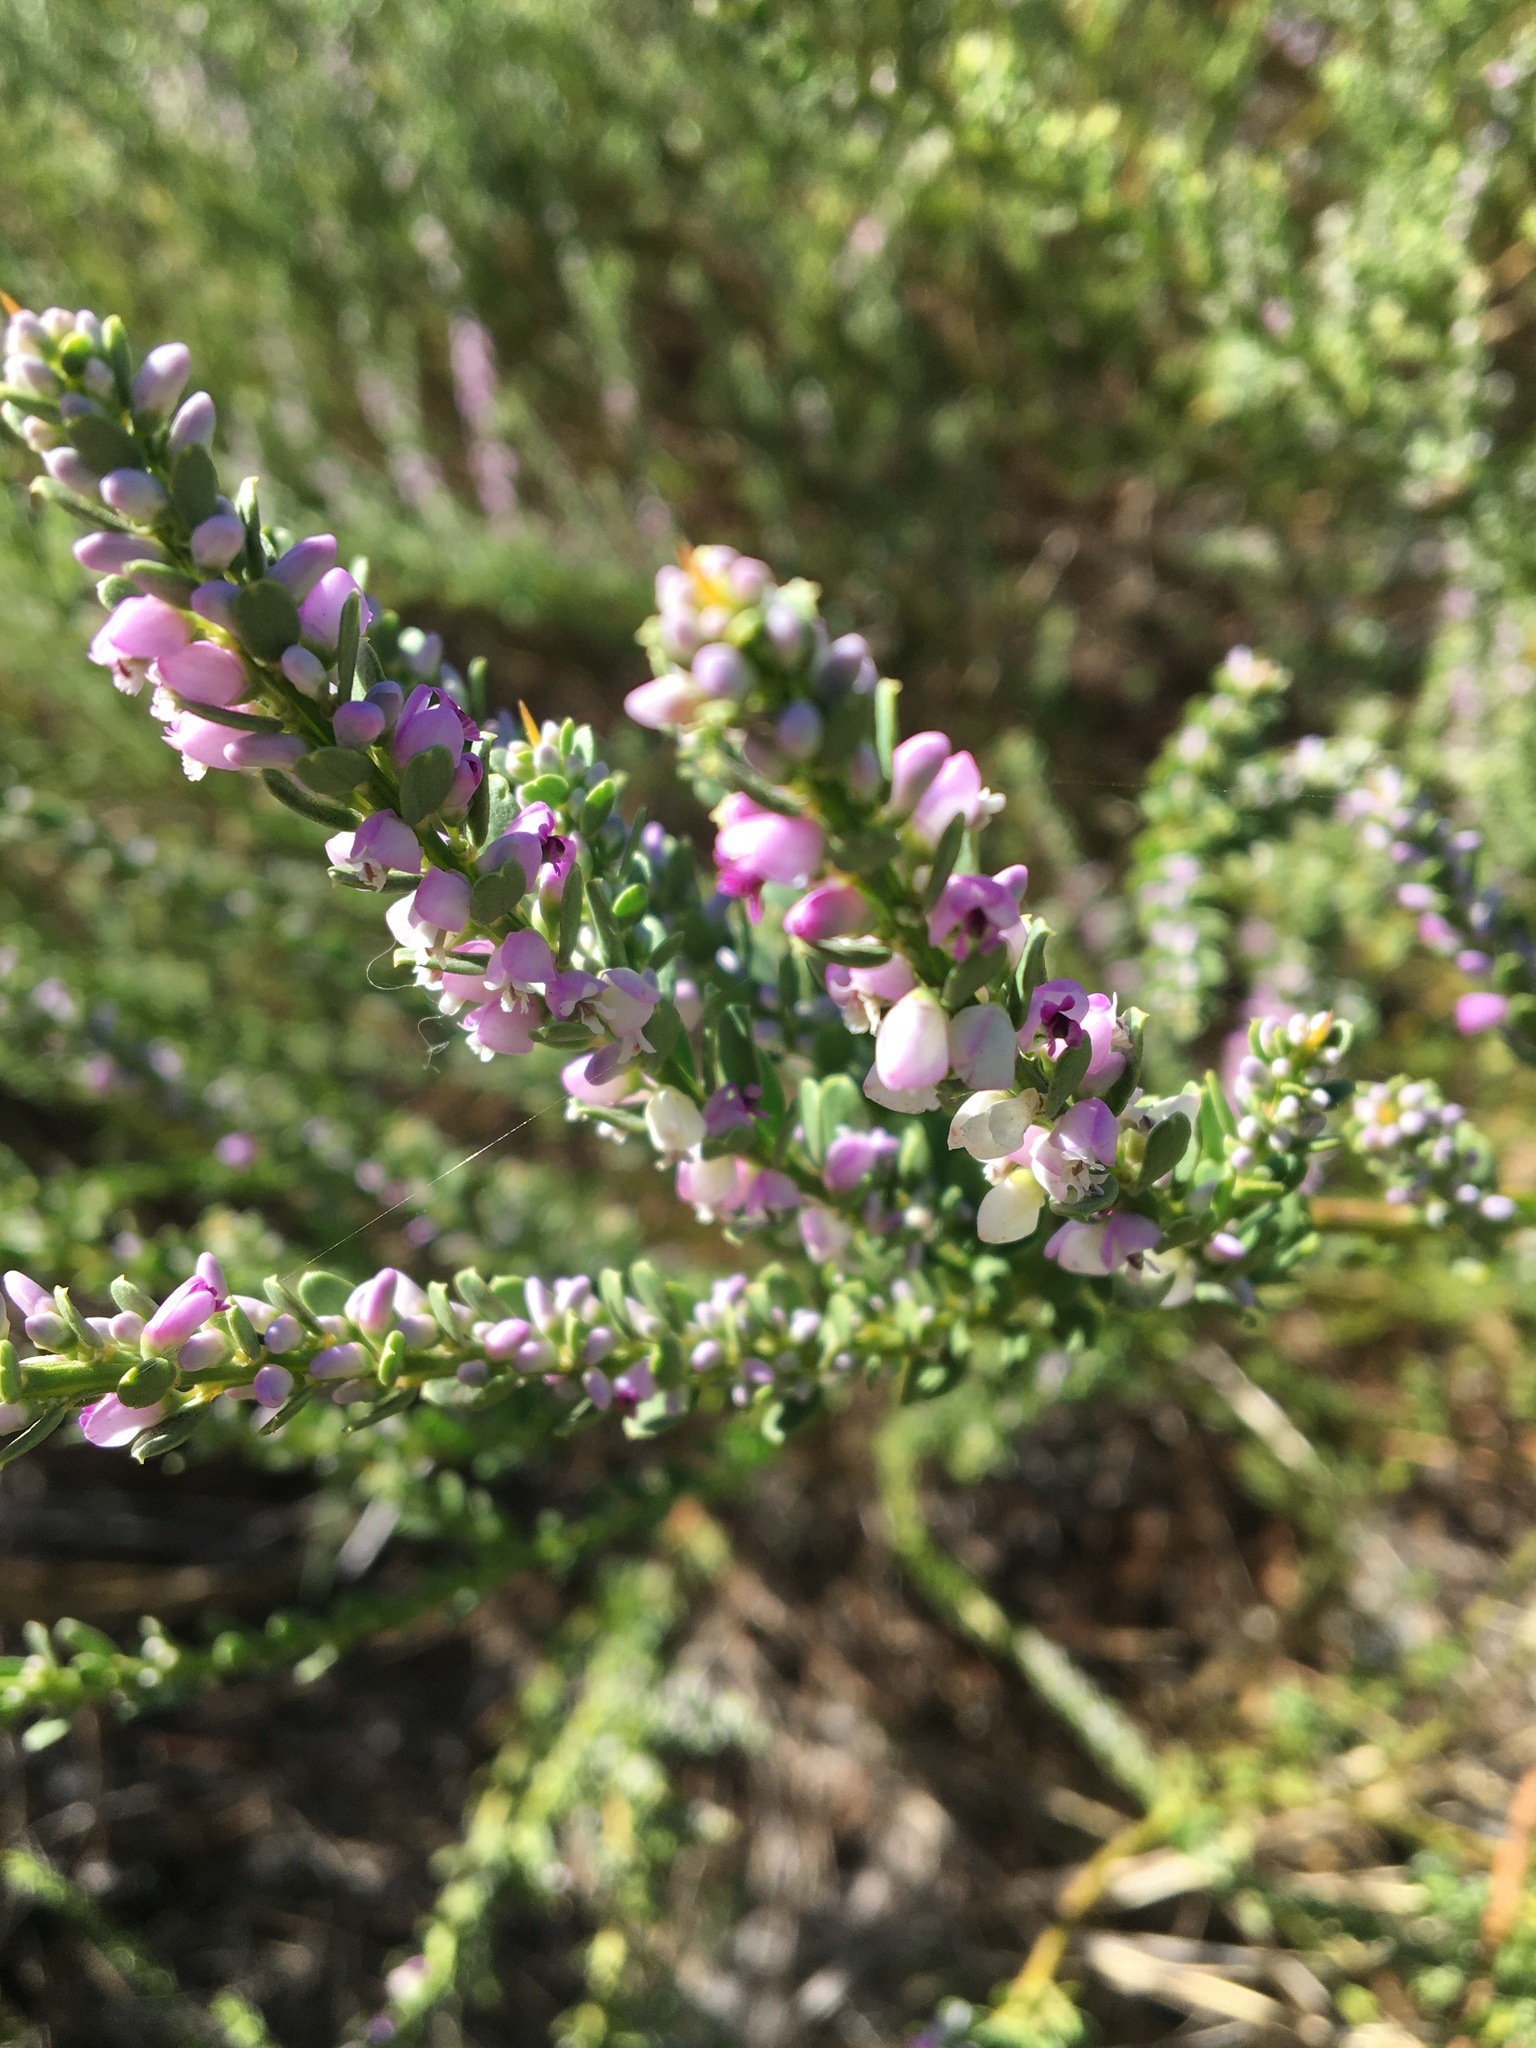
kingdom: Plantae
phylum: Tracheophyta
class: Magnoliopsida
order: Fabales
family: Polygalaceae
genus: Muraltia
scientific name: Muraltia spinosa
